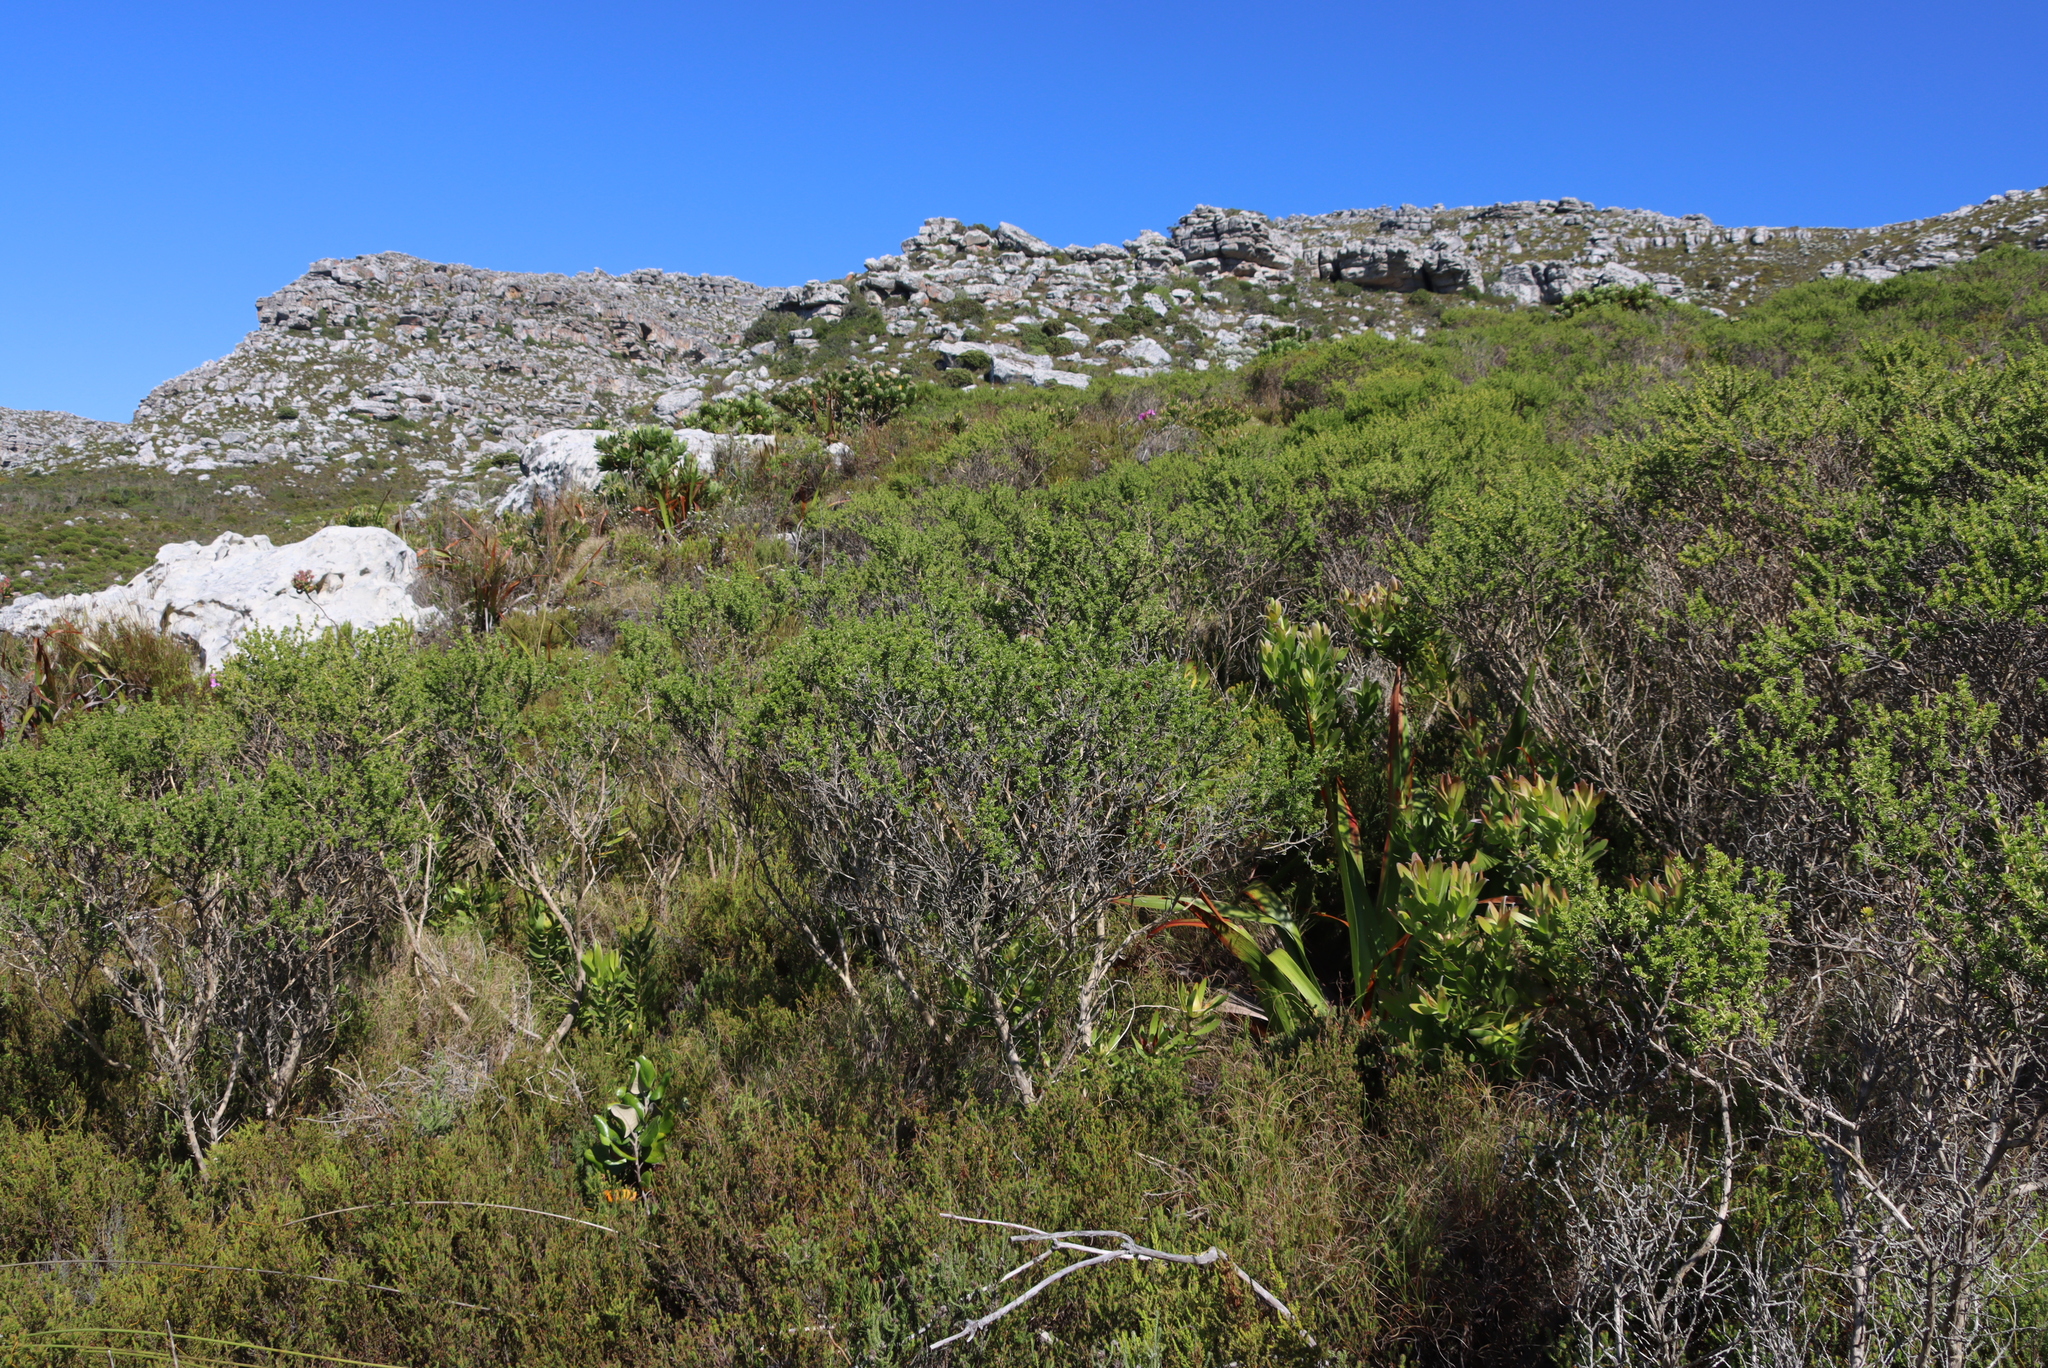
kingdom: Plantae
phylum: Tracheophyta
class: Magnoliopsida
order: Fabales
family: Fabaceae
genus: Aspalathus
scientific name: Aspalathus carnosa
